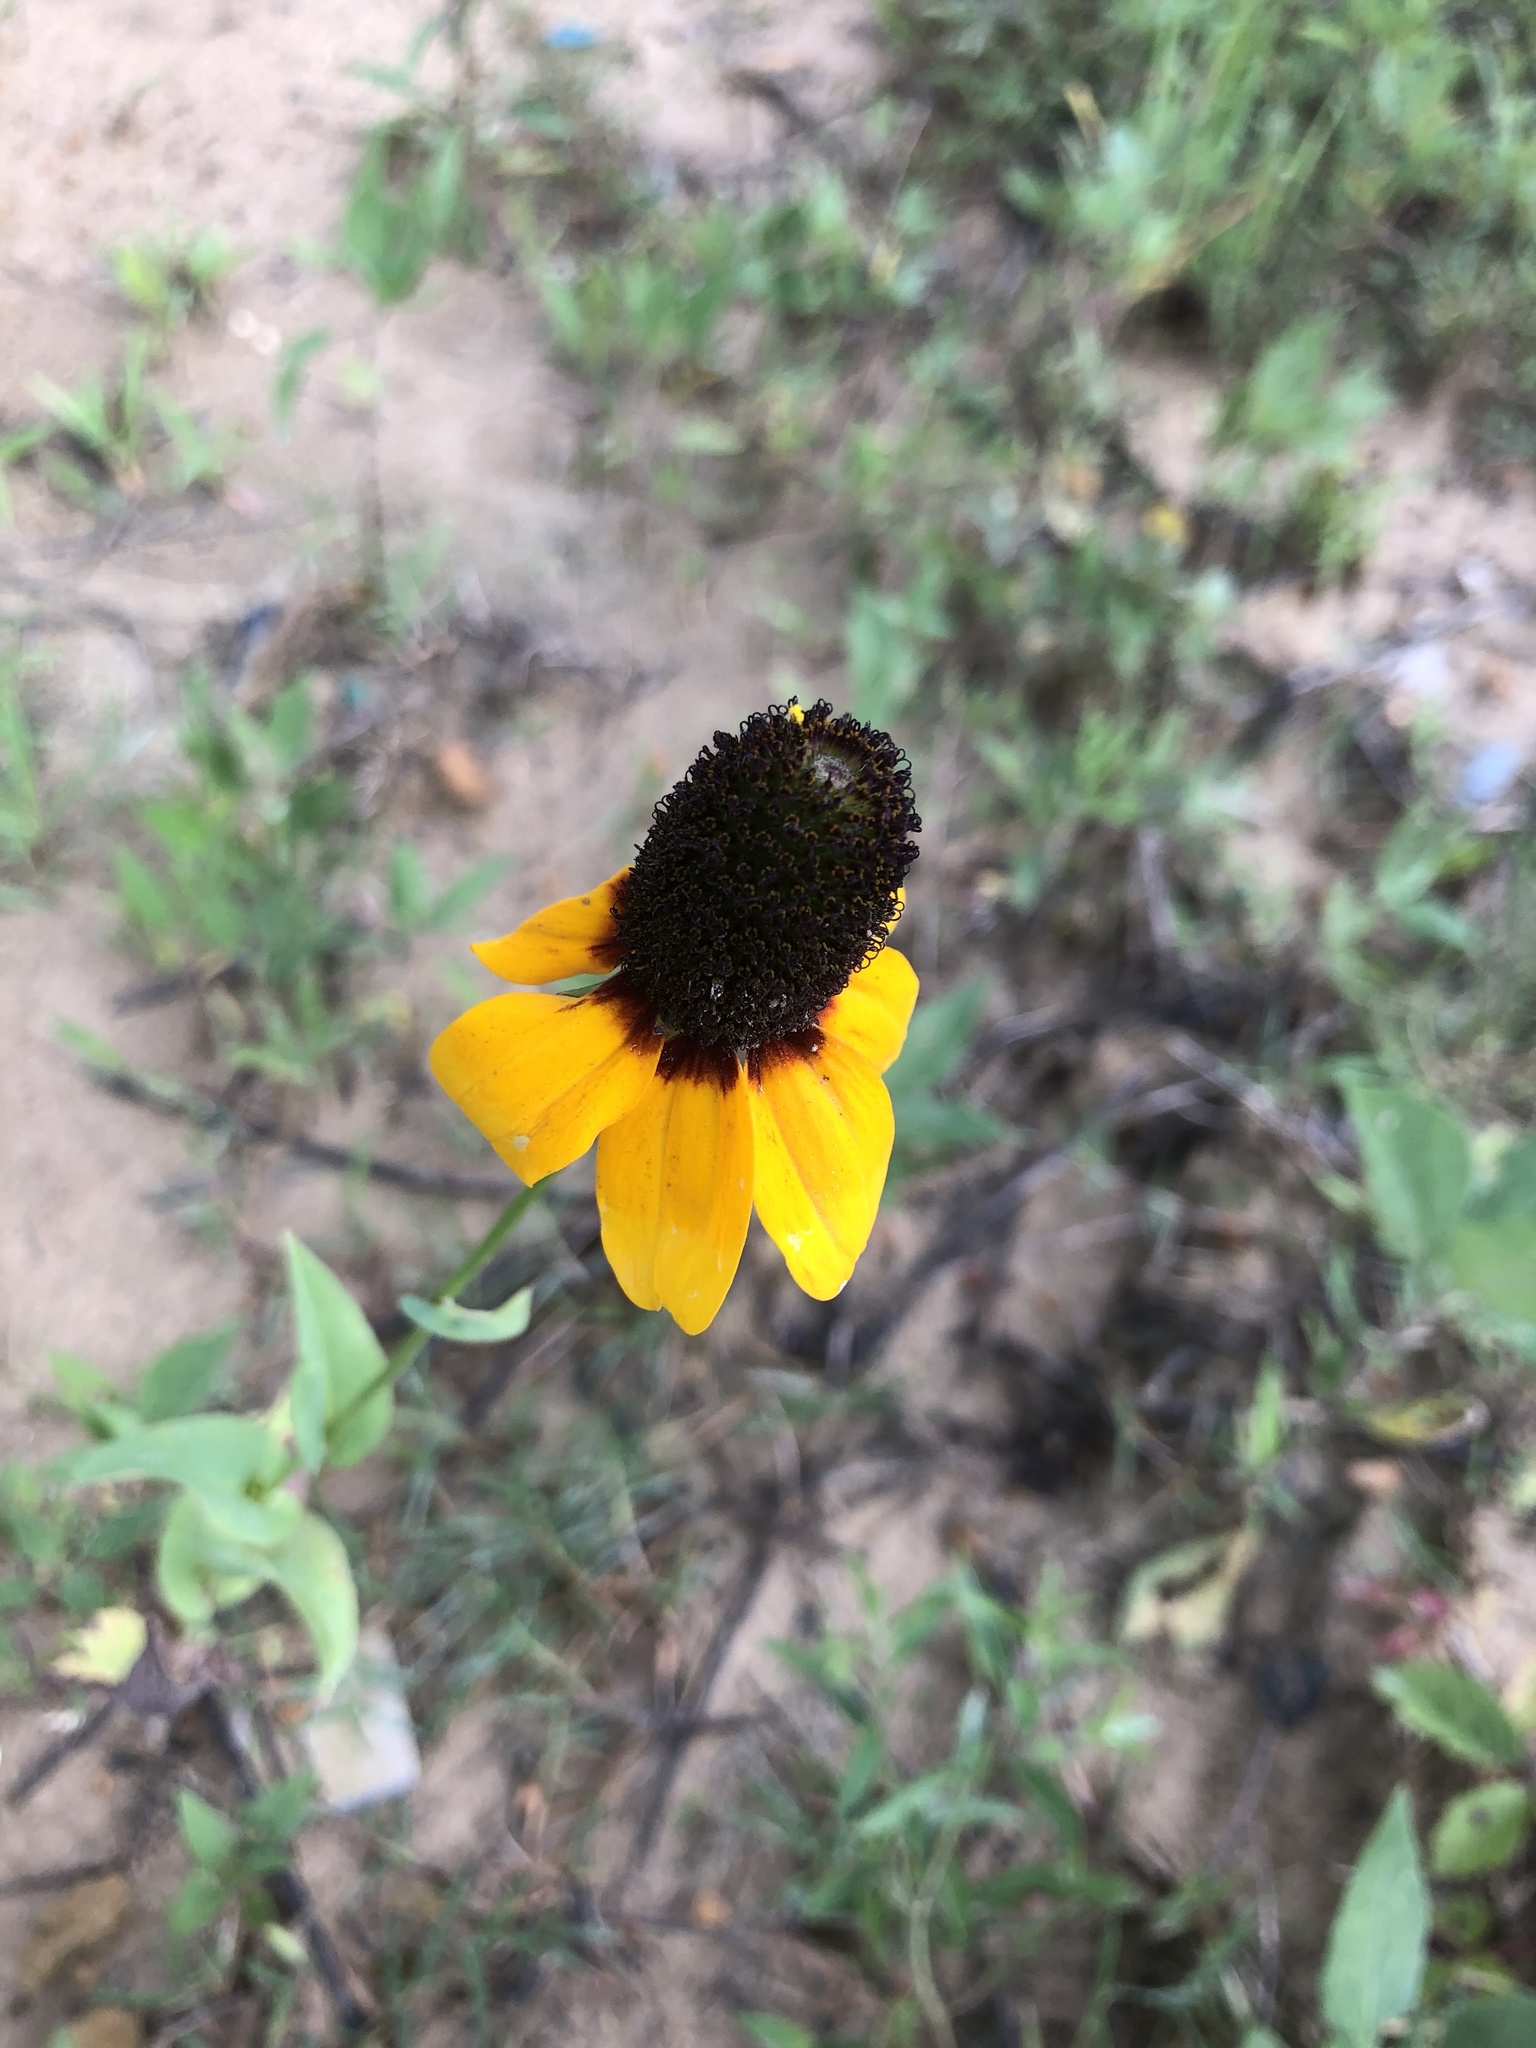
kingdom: Plantae
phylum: Tracheophyta
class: Magnoliopsida
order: Asterales
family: Asteraceae
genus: Rudbeckia
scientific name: Rudbeckia amplexicaulis
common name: Clasping-leaf coneflower
